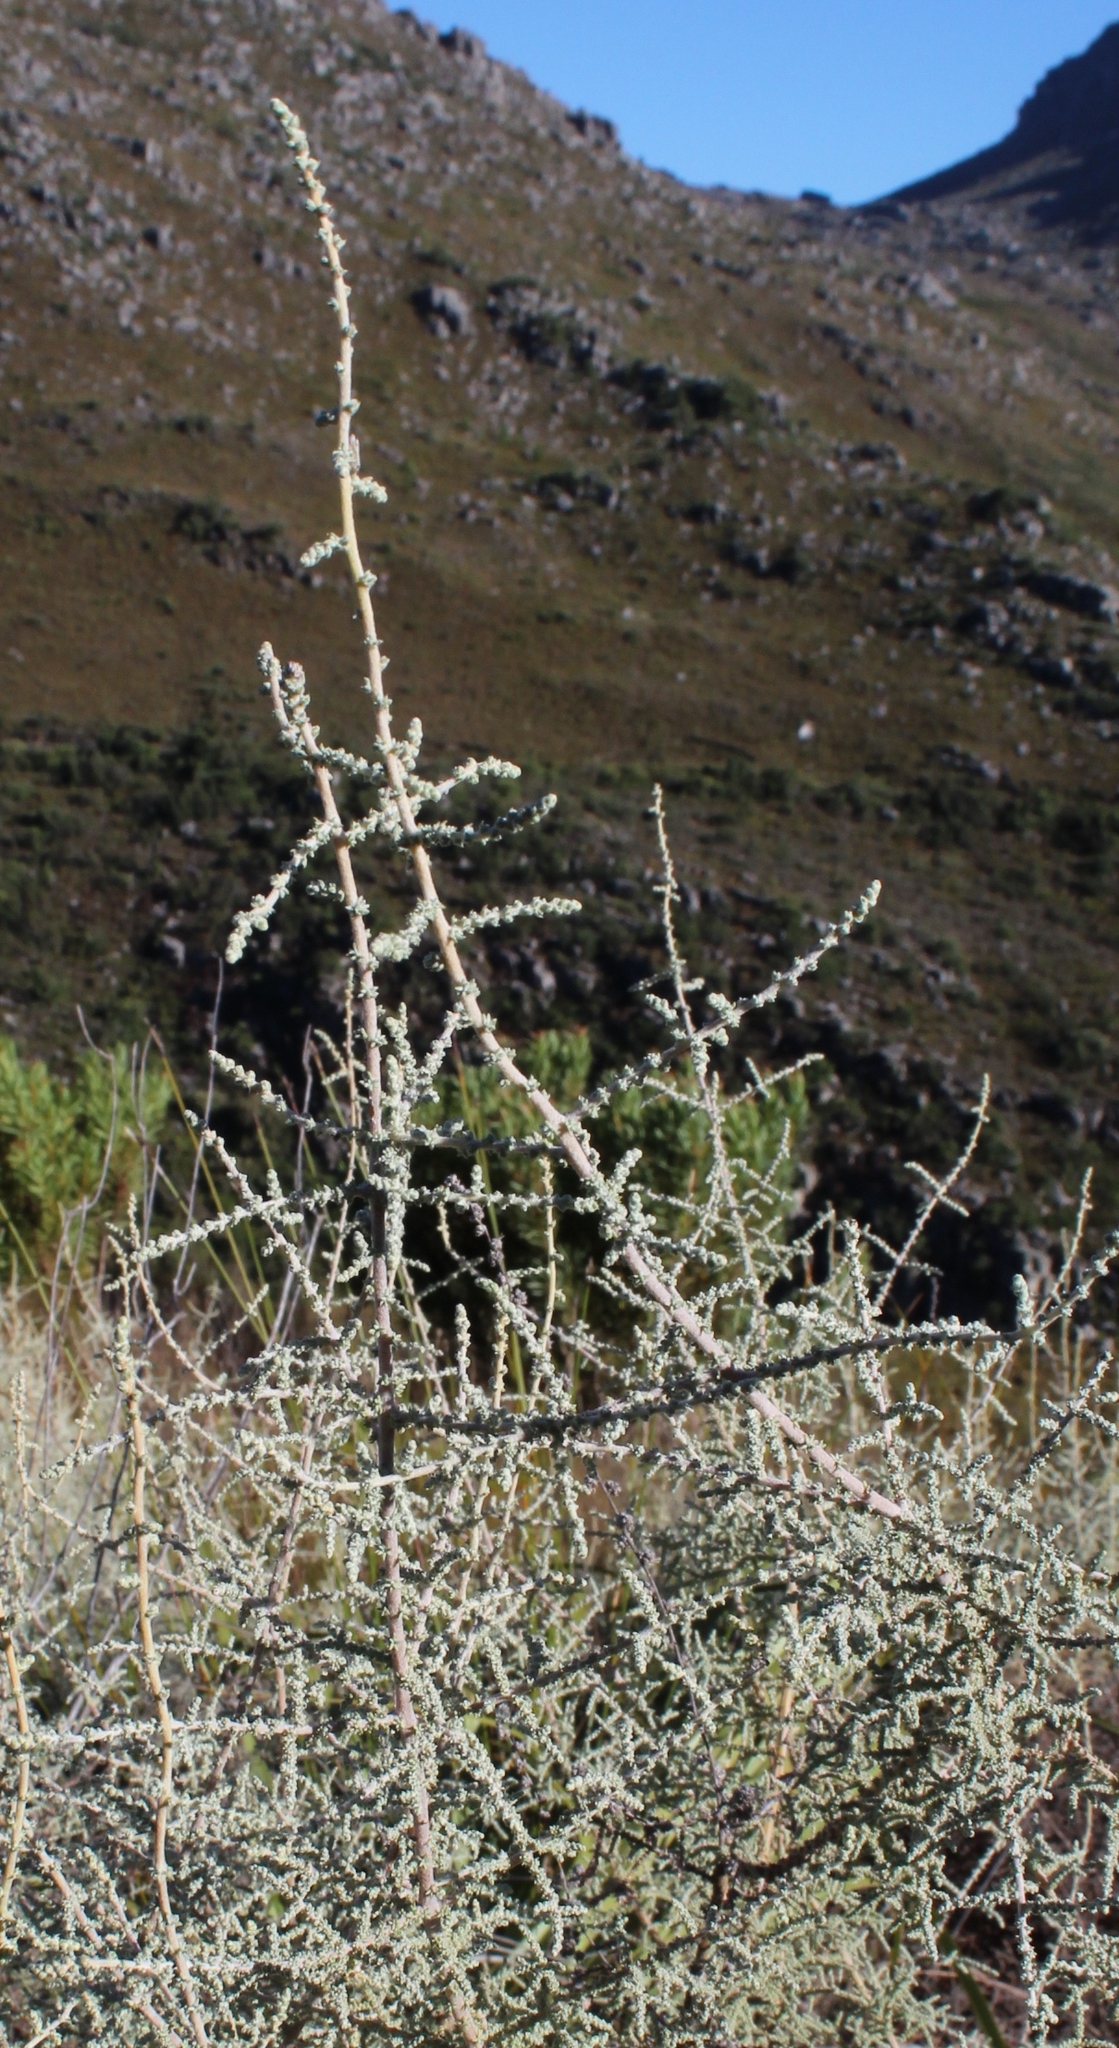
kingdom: Plantae
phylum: Tracheophyta
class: Magnoliopsida
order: Asterales
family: Asteraceae
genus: Seriphium
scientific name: Seriphium plumosum
